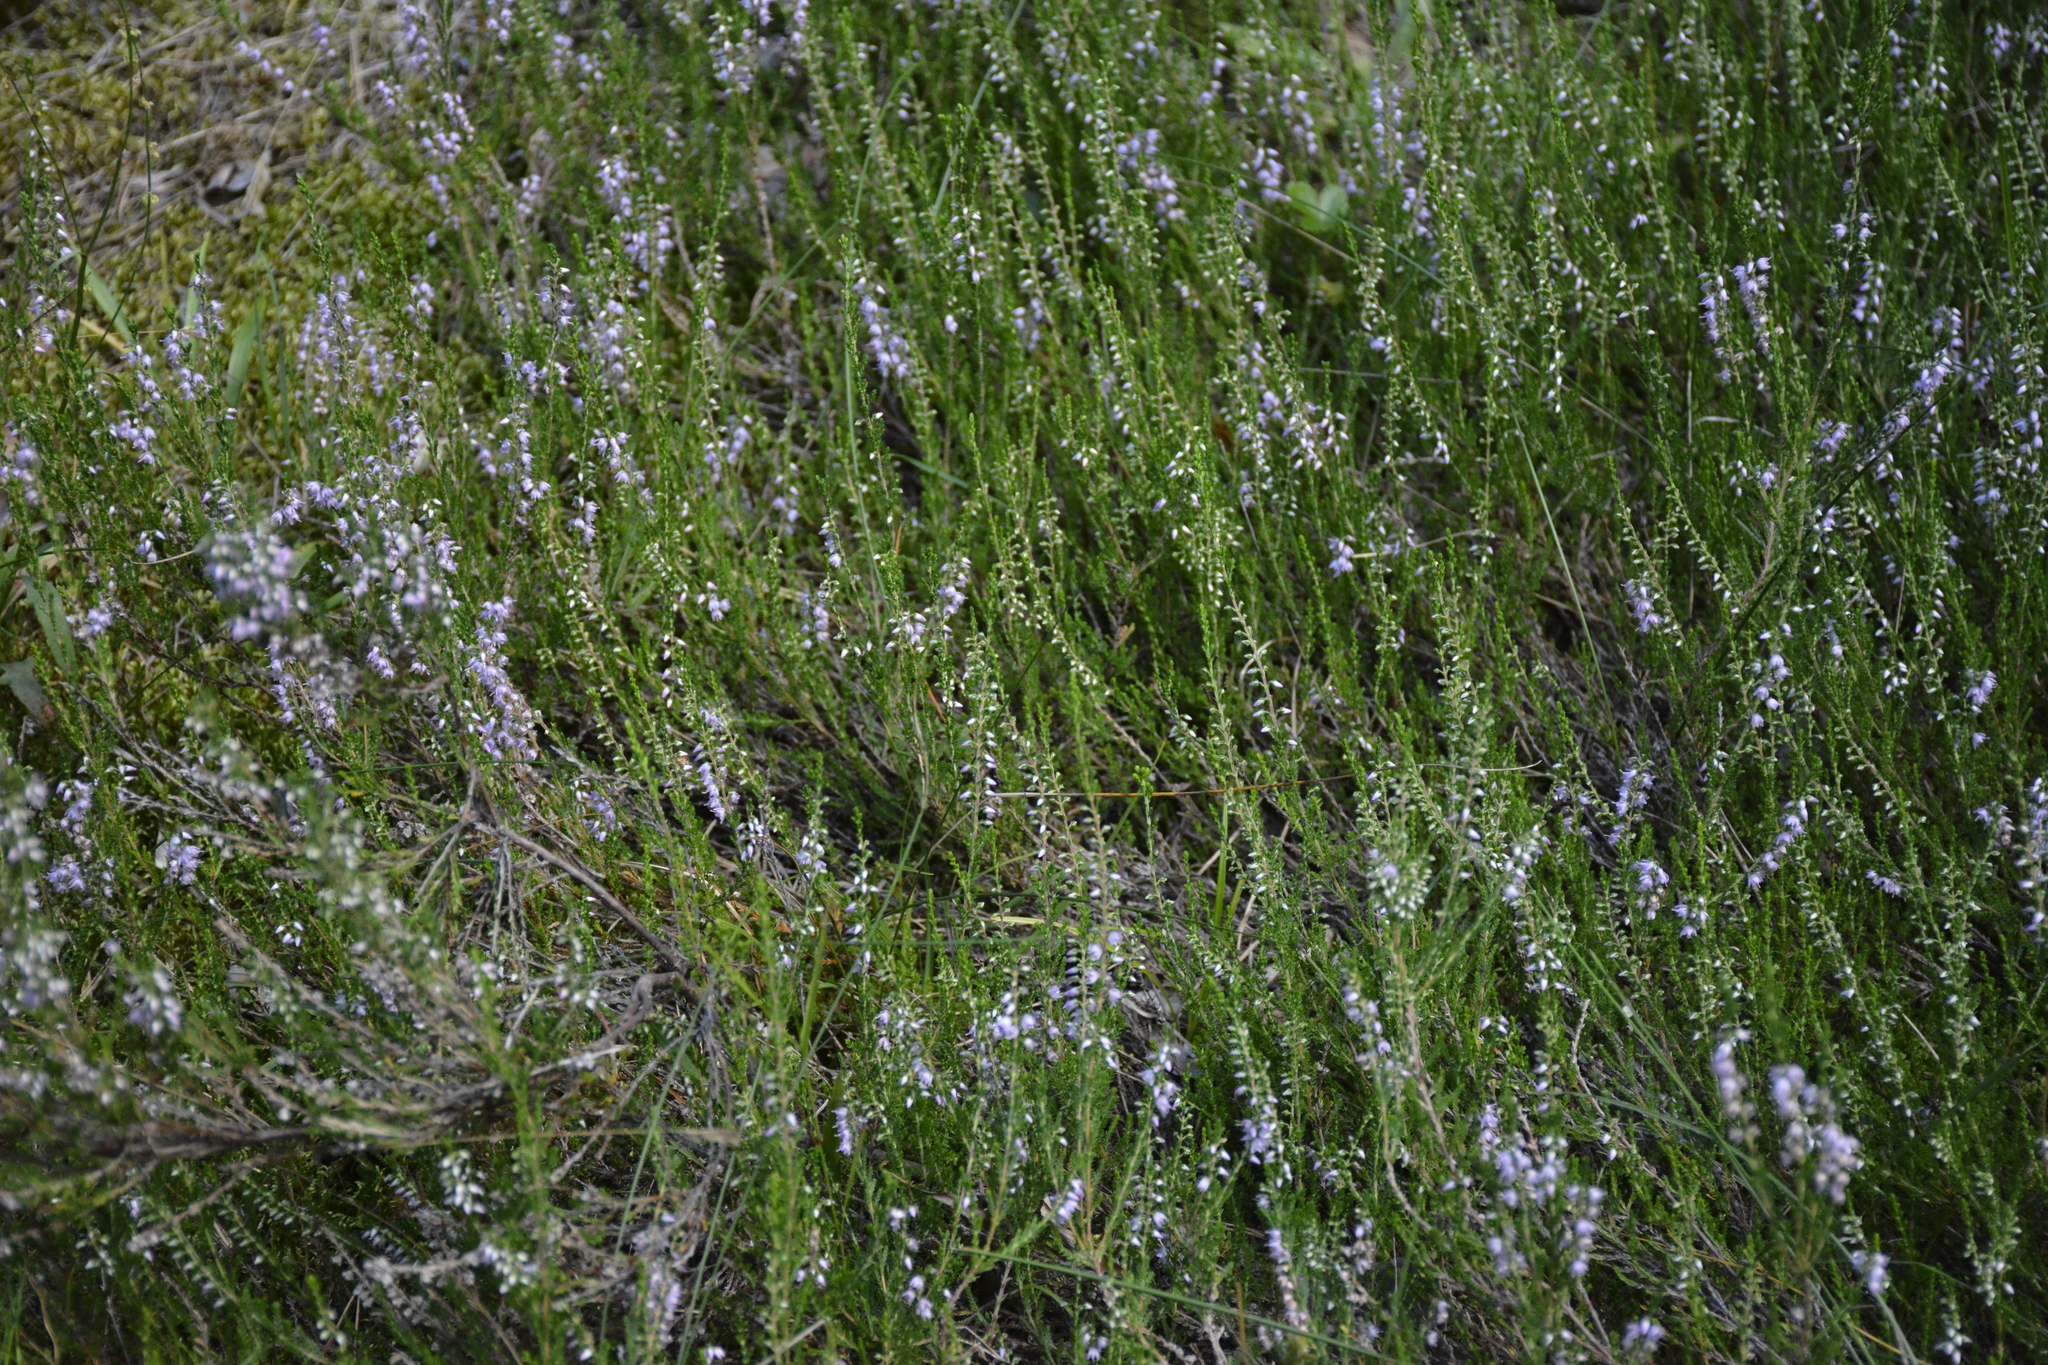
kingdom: Plantae
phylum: Tracheophyta
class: Magnoliopsida
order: Ericales
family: Ericaceae
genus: Calluna
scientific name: Calluna vulgaris
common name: Heather
